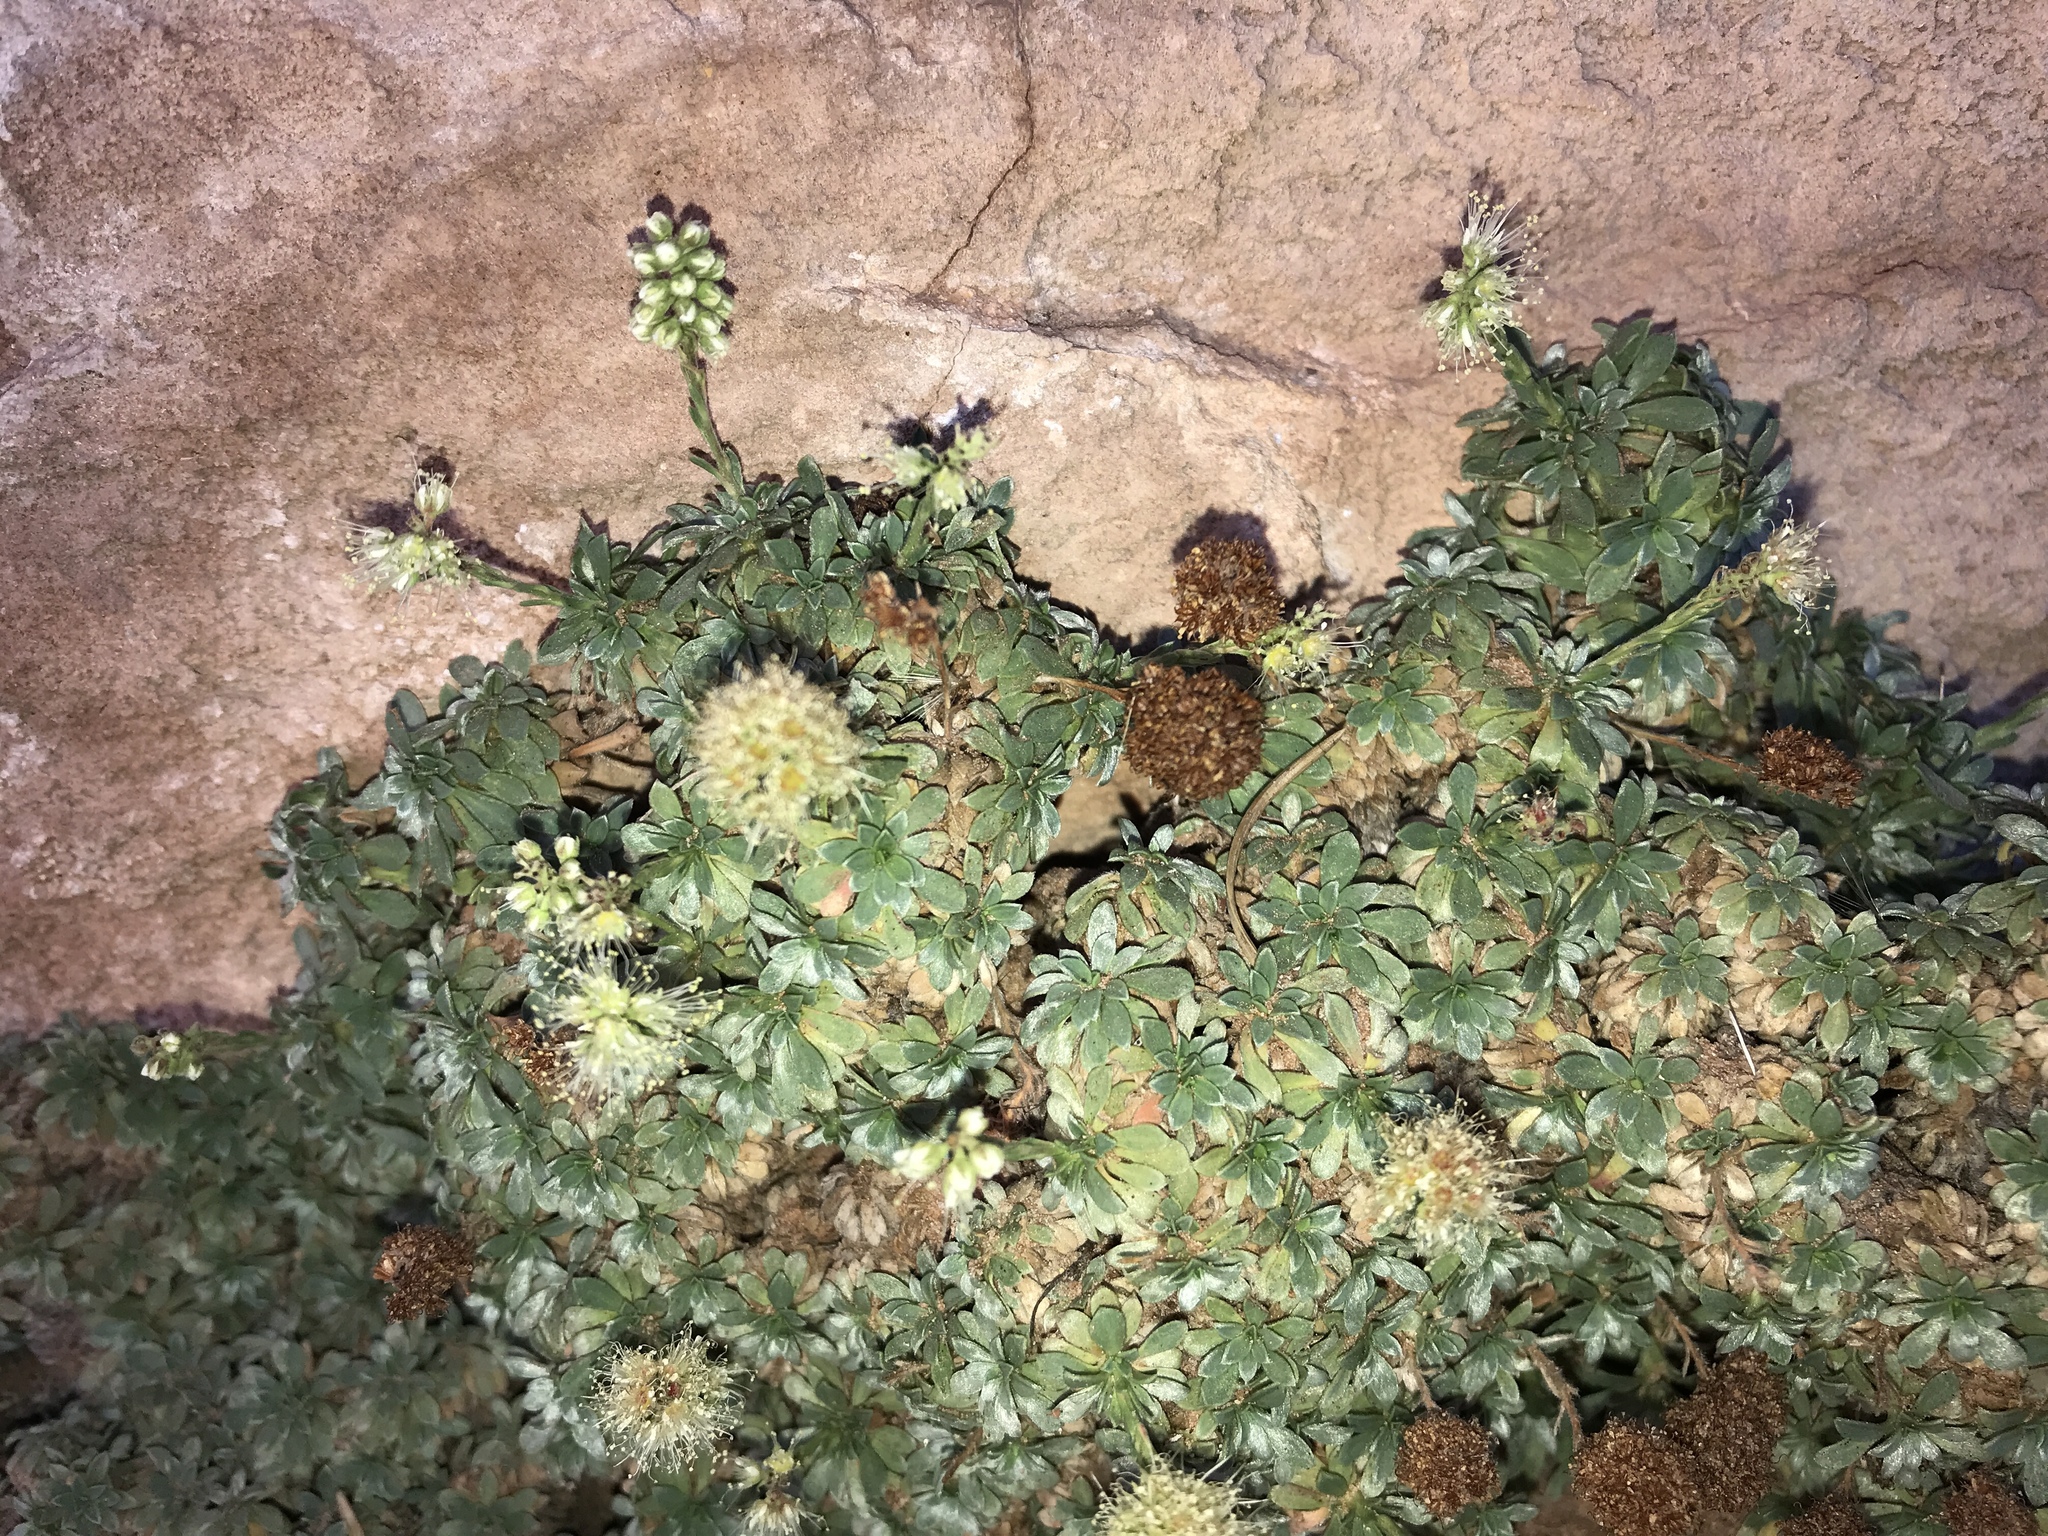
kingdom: Plantae
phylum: Tracheophyta
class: Magnoliopsida
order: Rosales
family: Rosaceae
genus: Petrophytum
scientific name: Petrophytum caespitosum
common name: Mat rockspirea
